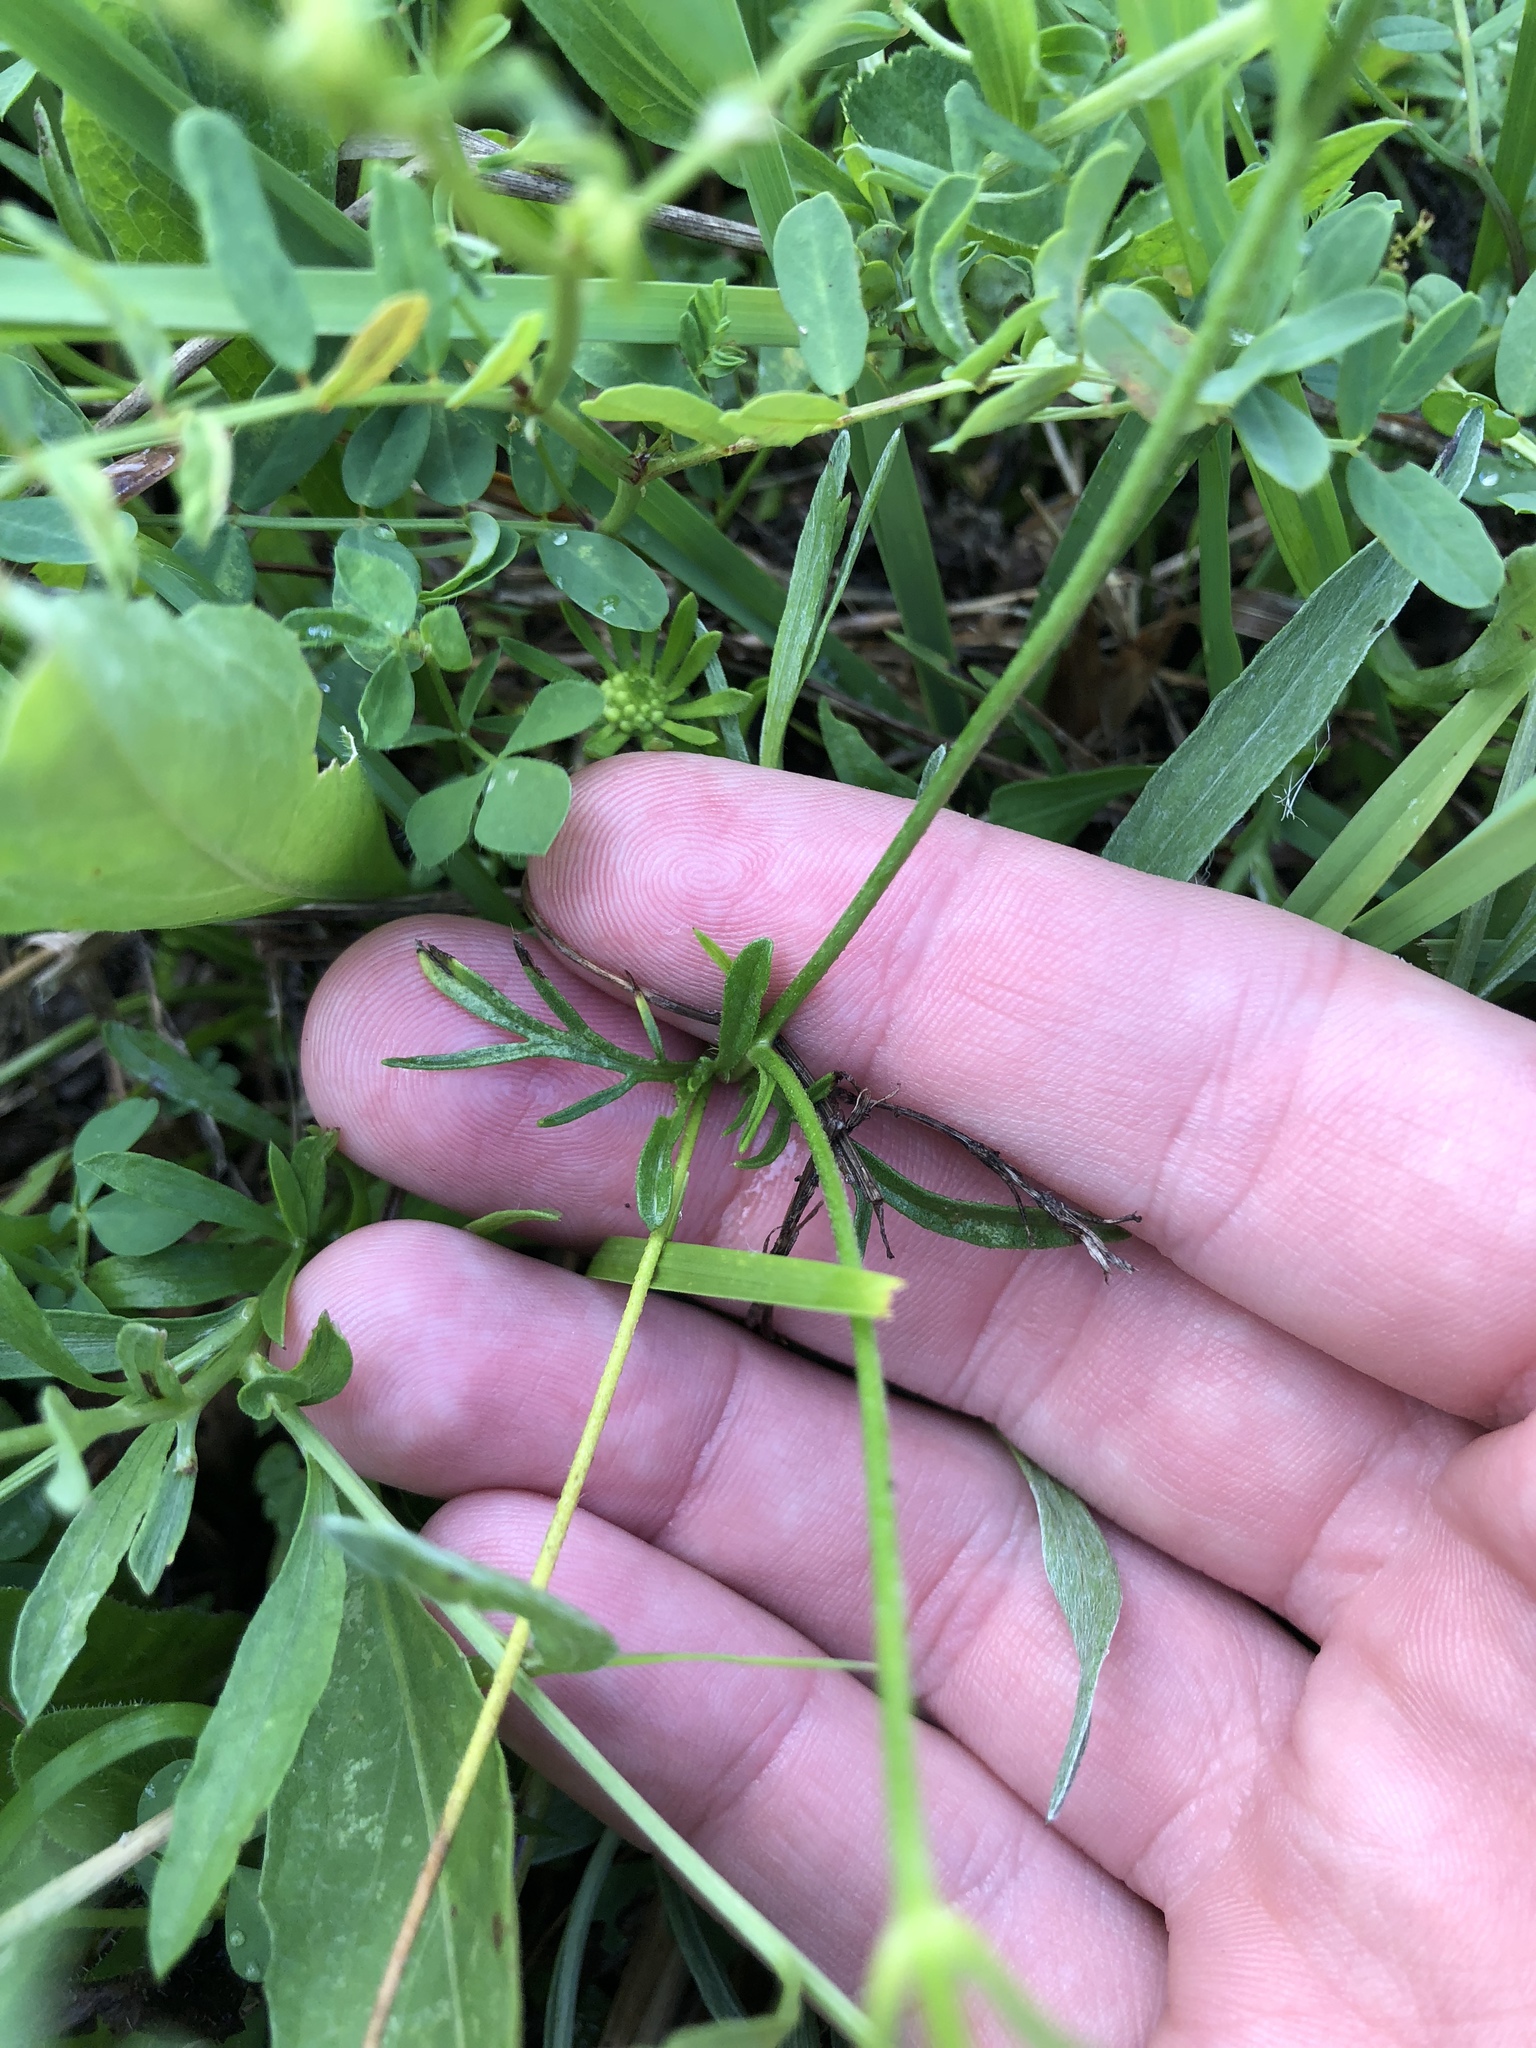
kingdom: Plantae
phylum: Tracheophyta
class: Magnoliopsida
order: Dipsacales
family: Caprifoliaceae
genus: Scabiosa
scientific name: Scabiosa ochroleuca
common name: Cream pincushions
